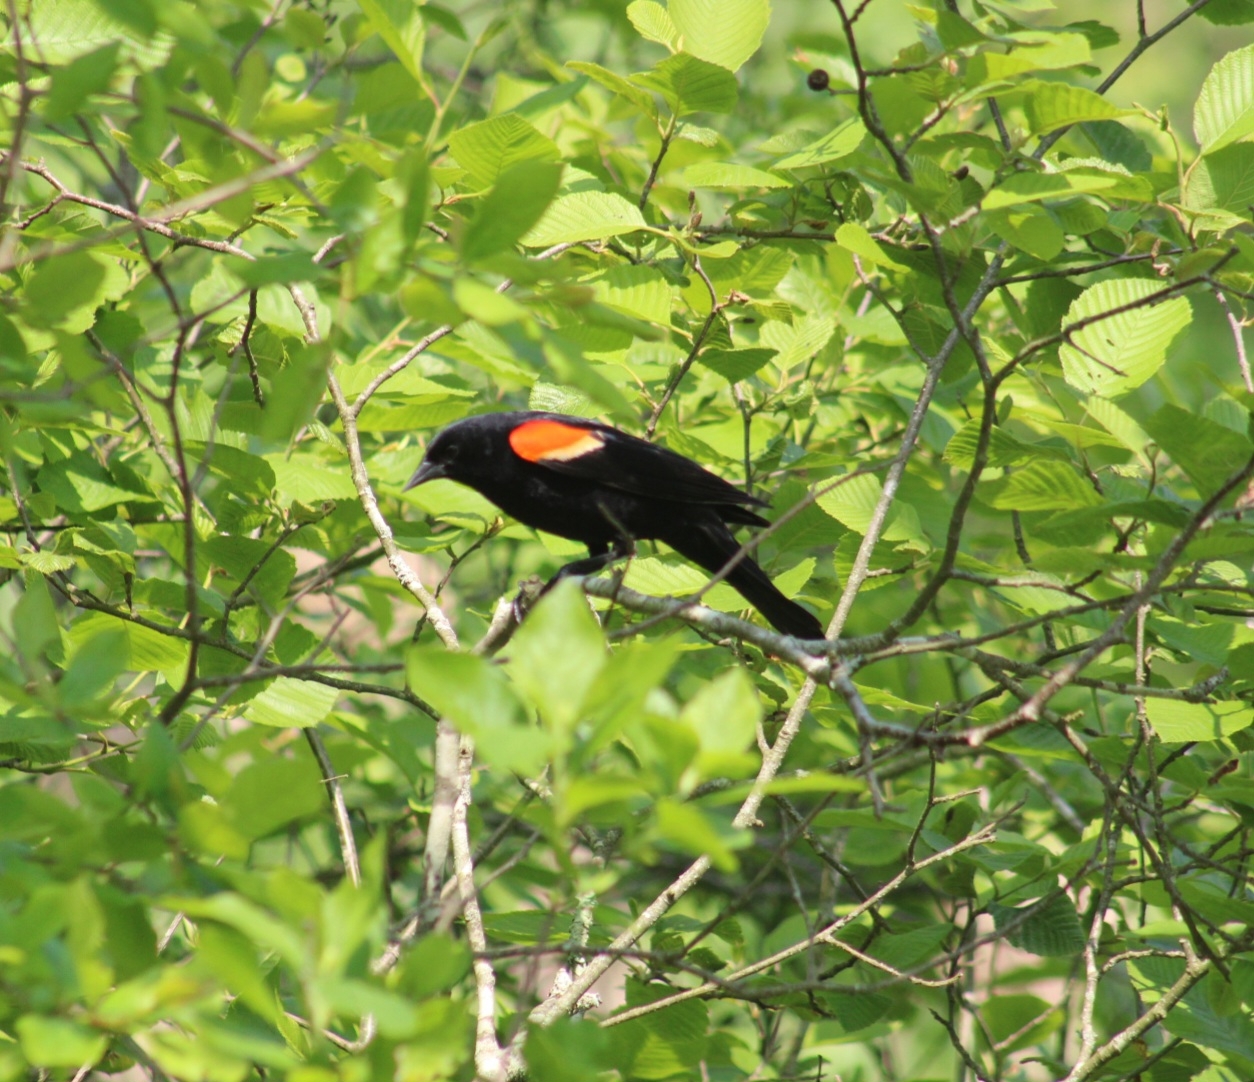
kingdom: Animalia
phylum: Chordata
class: Aves
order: Passeriformes
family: Icteridae
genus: Agelaius
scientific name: Agelaius phoeniceus
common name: Red-winged blackbird
